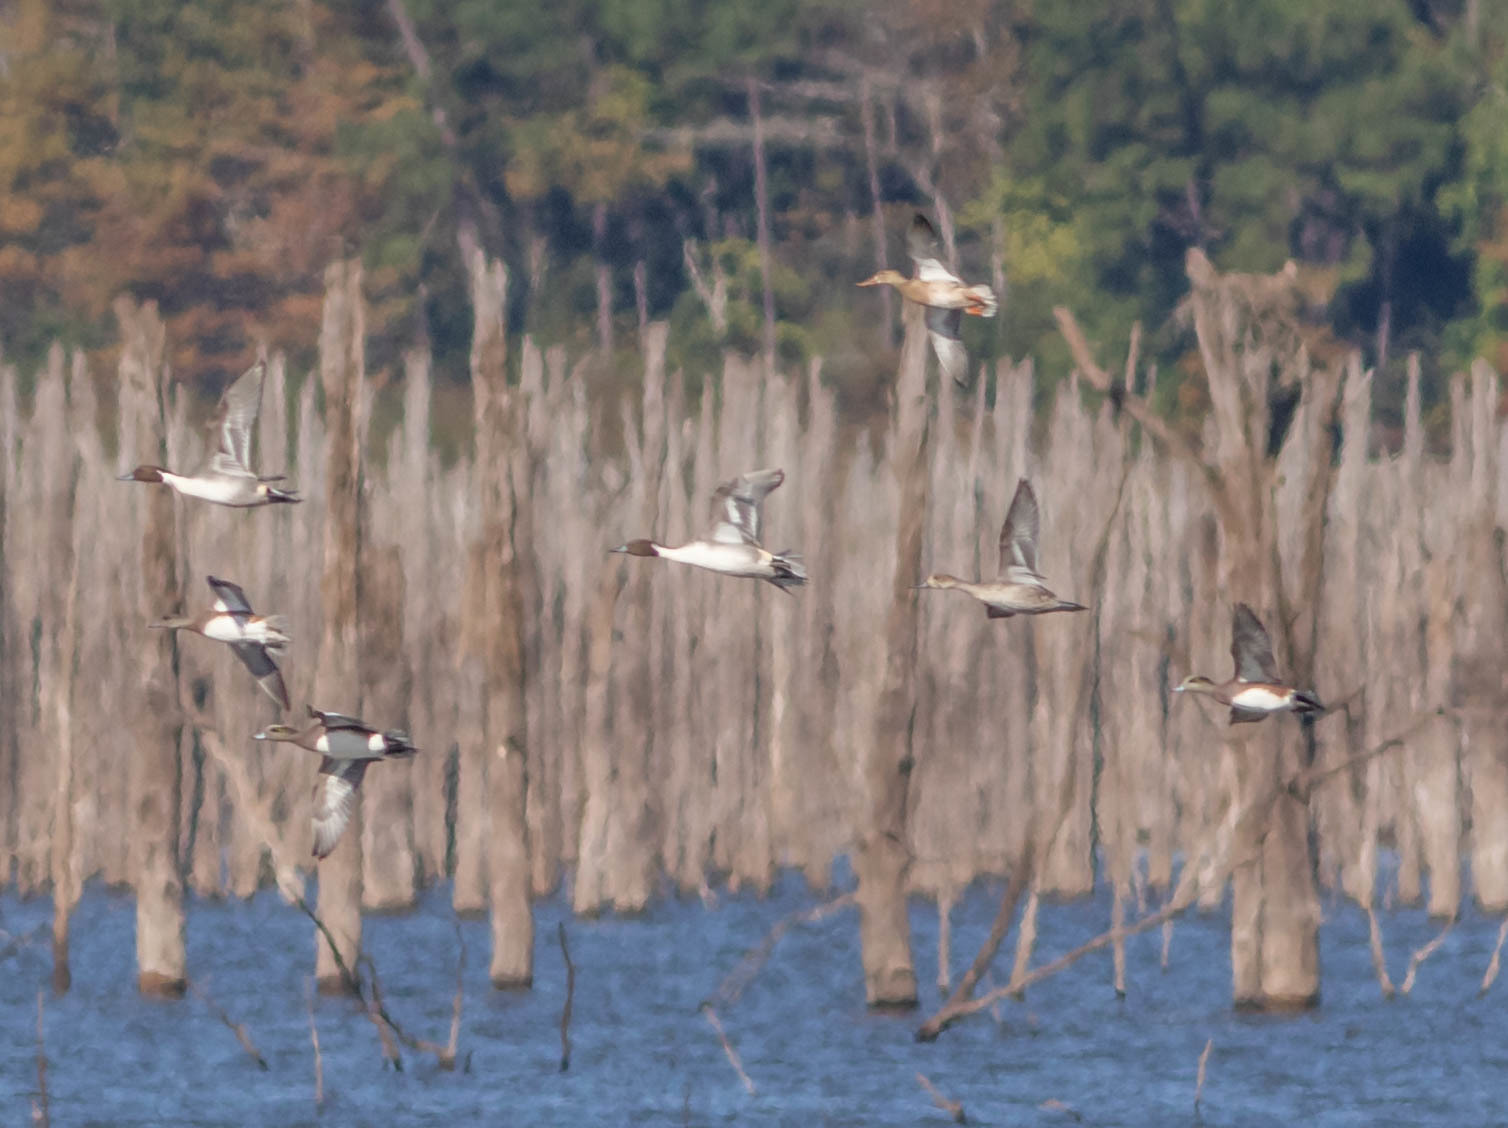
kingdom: Animalia
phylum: Chordata
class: Aves
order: Anseriformes
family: Anatidae
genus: Spatula
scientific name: Spatula clypeata
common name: Northern shoveler
